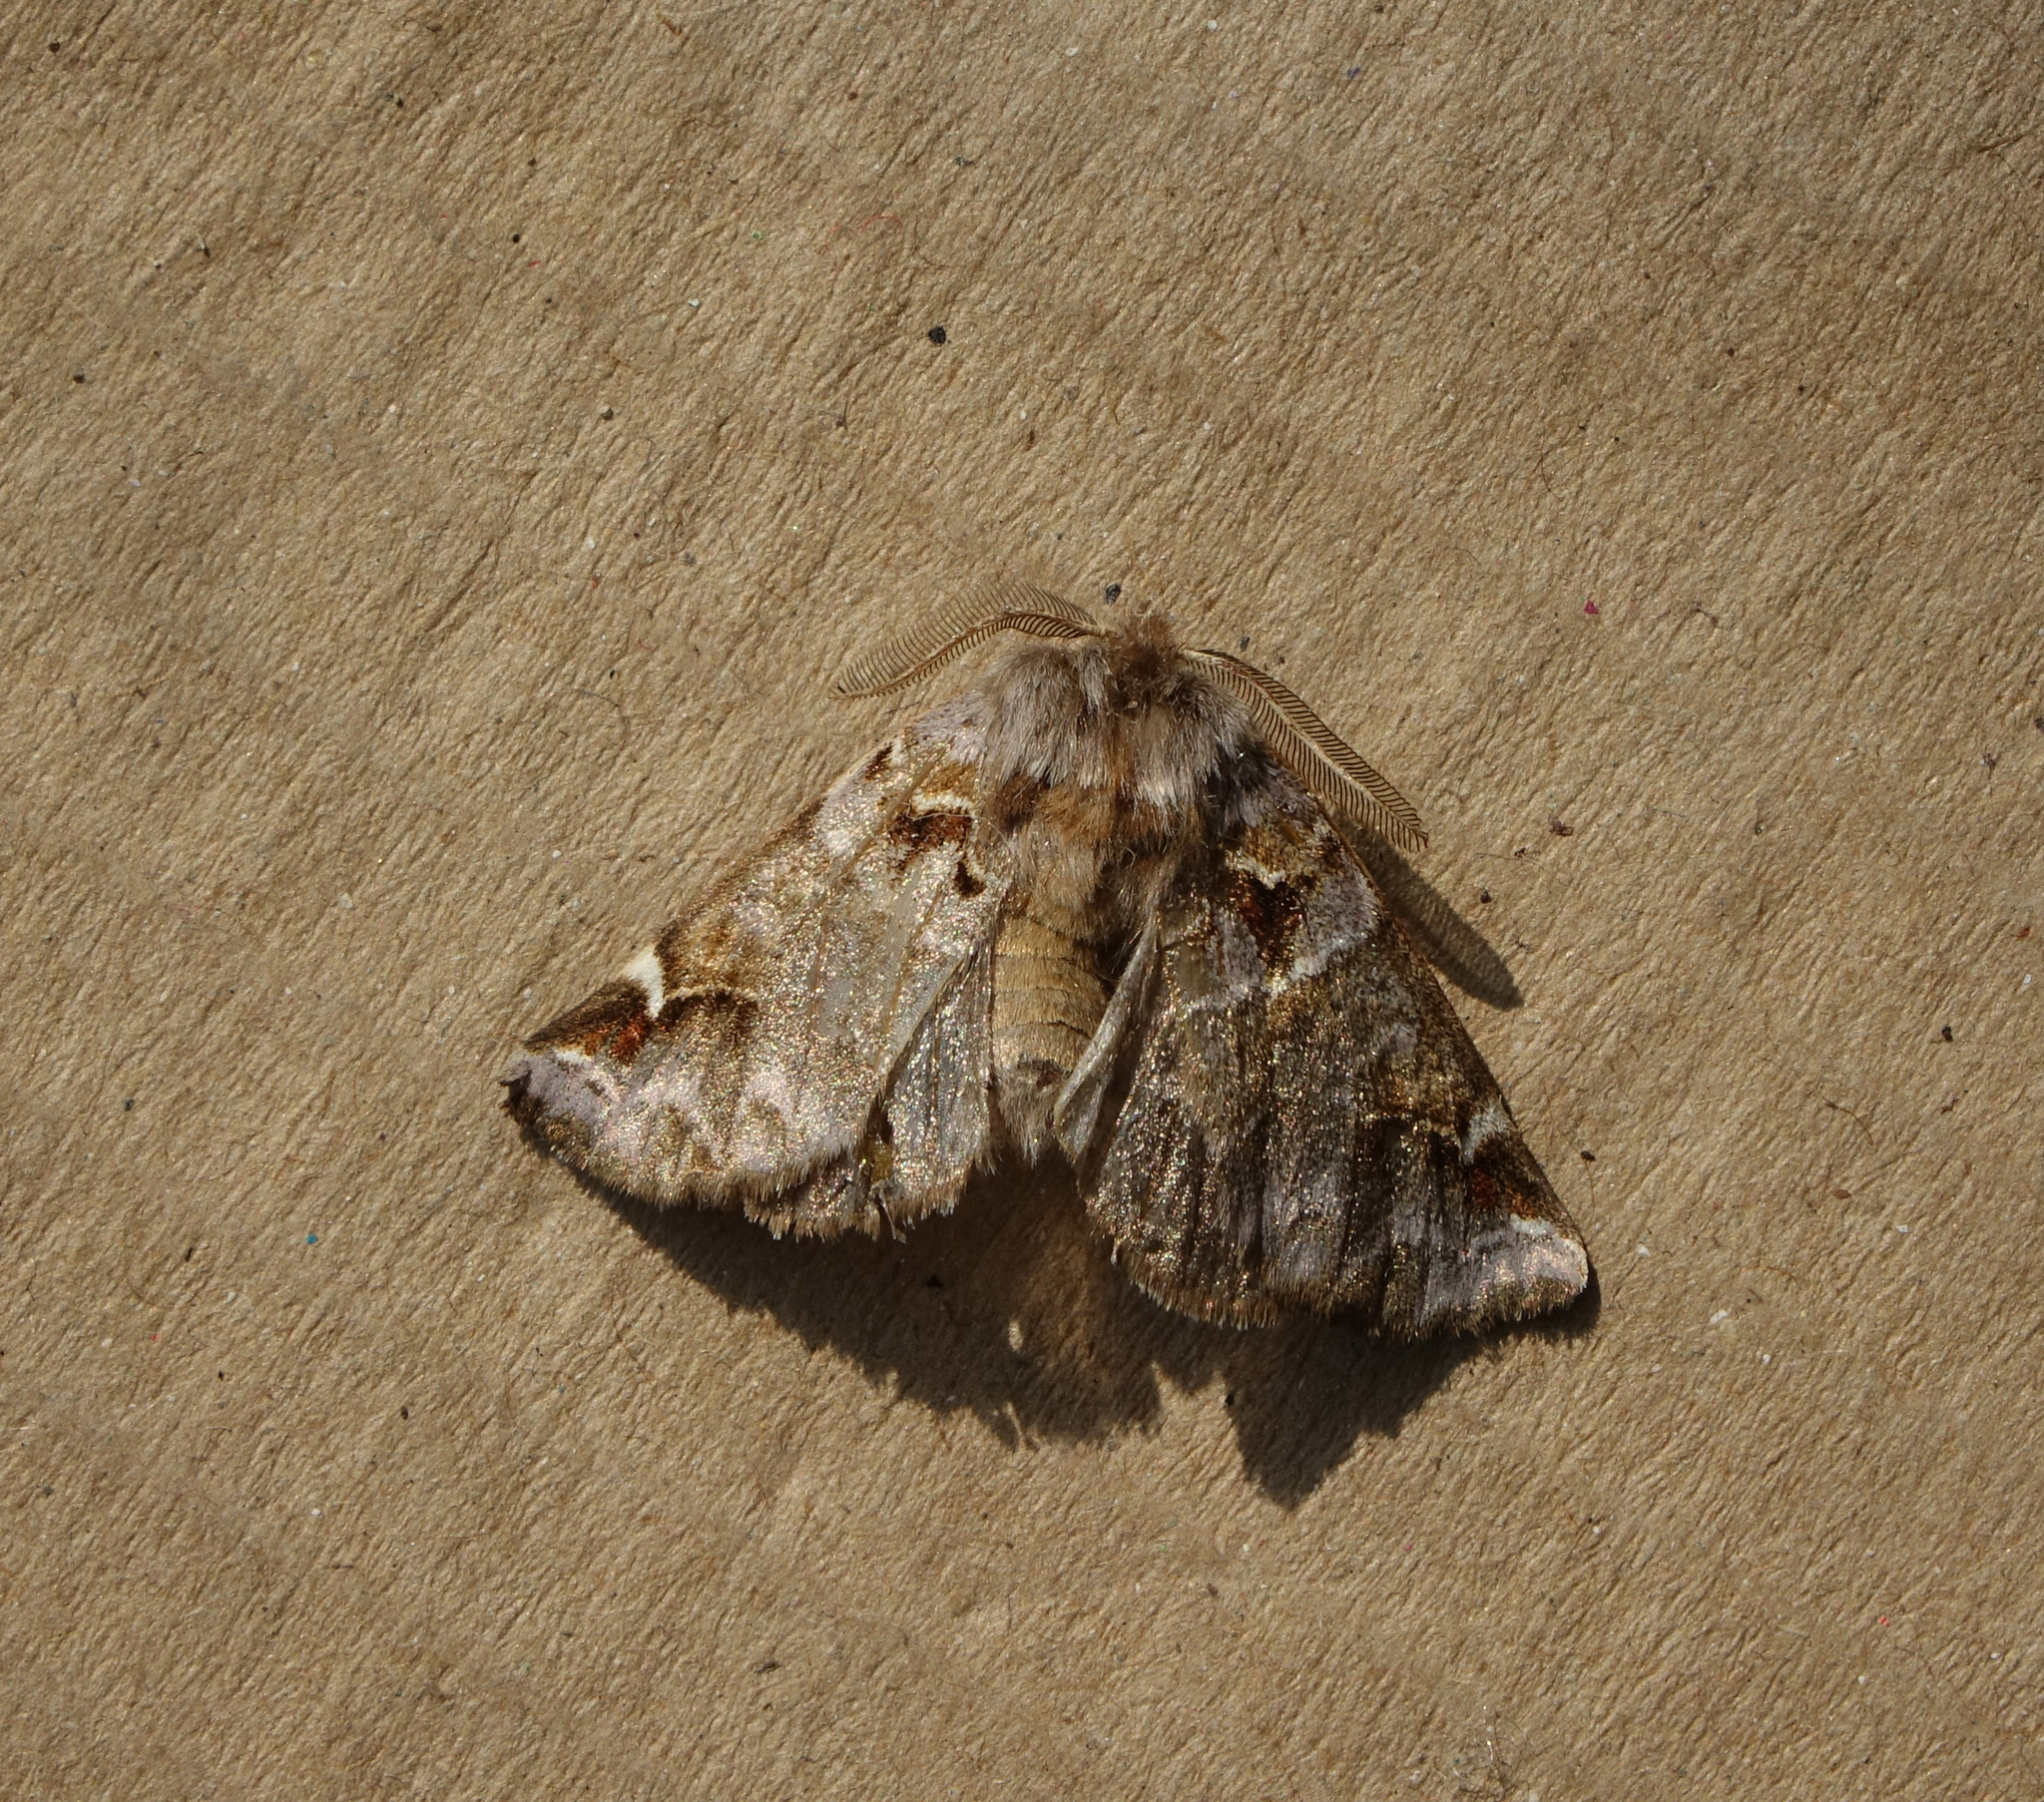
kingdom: Animalia
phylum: Arthropoda
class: Insecta
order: Lepidoptera
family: Notodontidae
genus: Pygaera
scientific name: Pygaera timon
